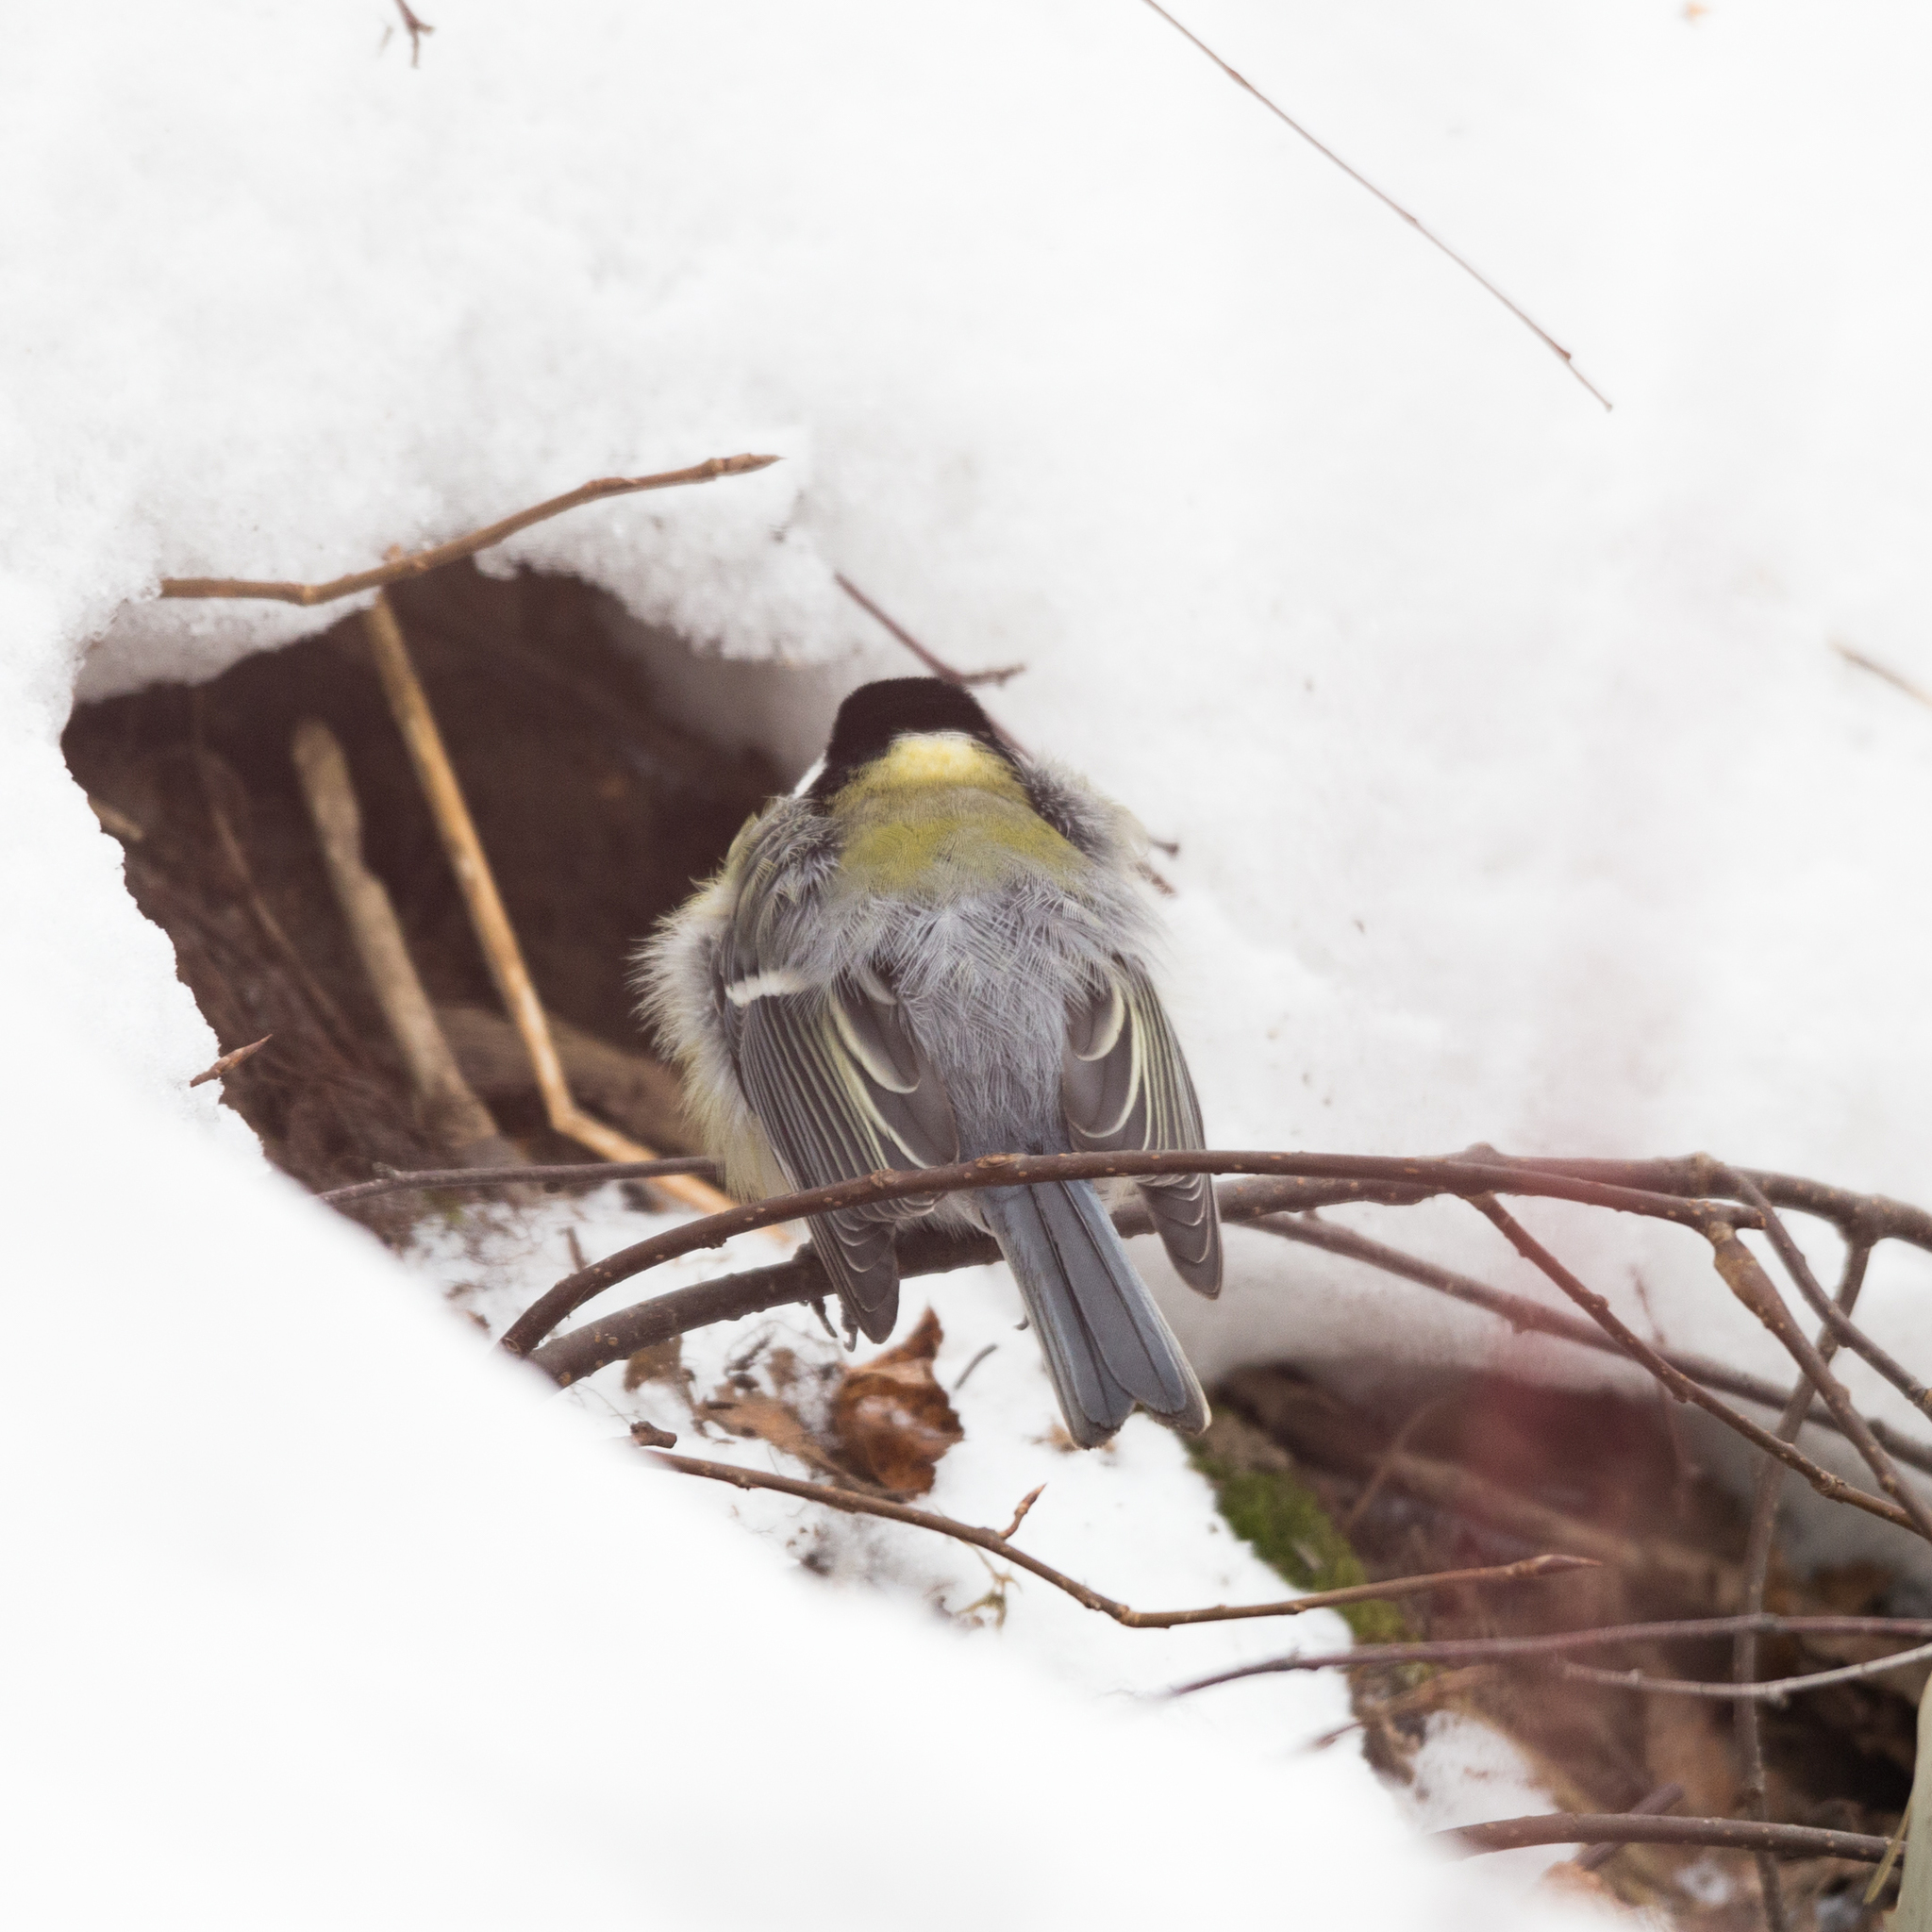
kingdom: Animalia
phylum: Chordata
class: Aves
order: Passeriformes
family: Paridae
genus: Parus
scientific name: Parus major
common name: Great tit
